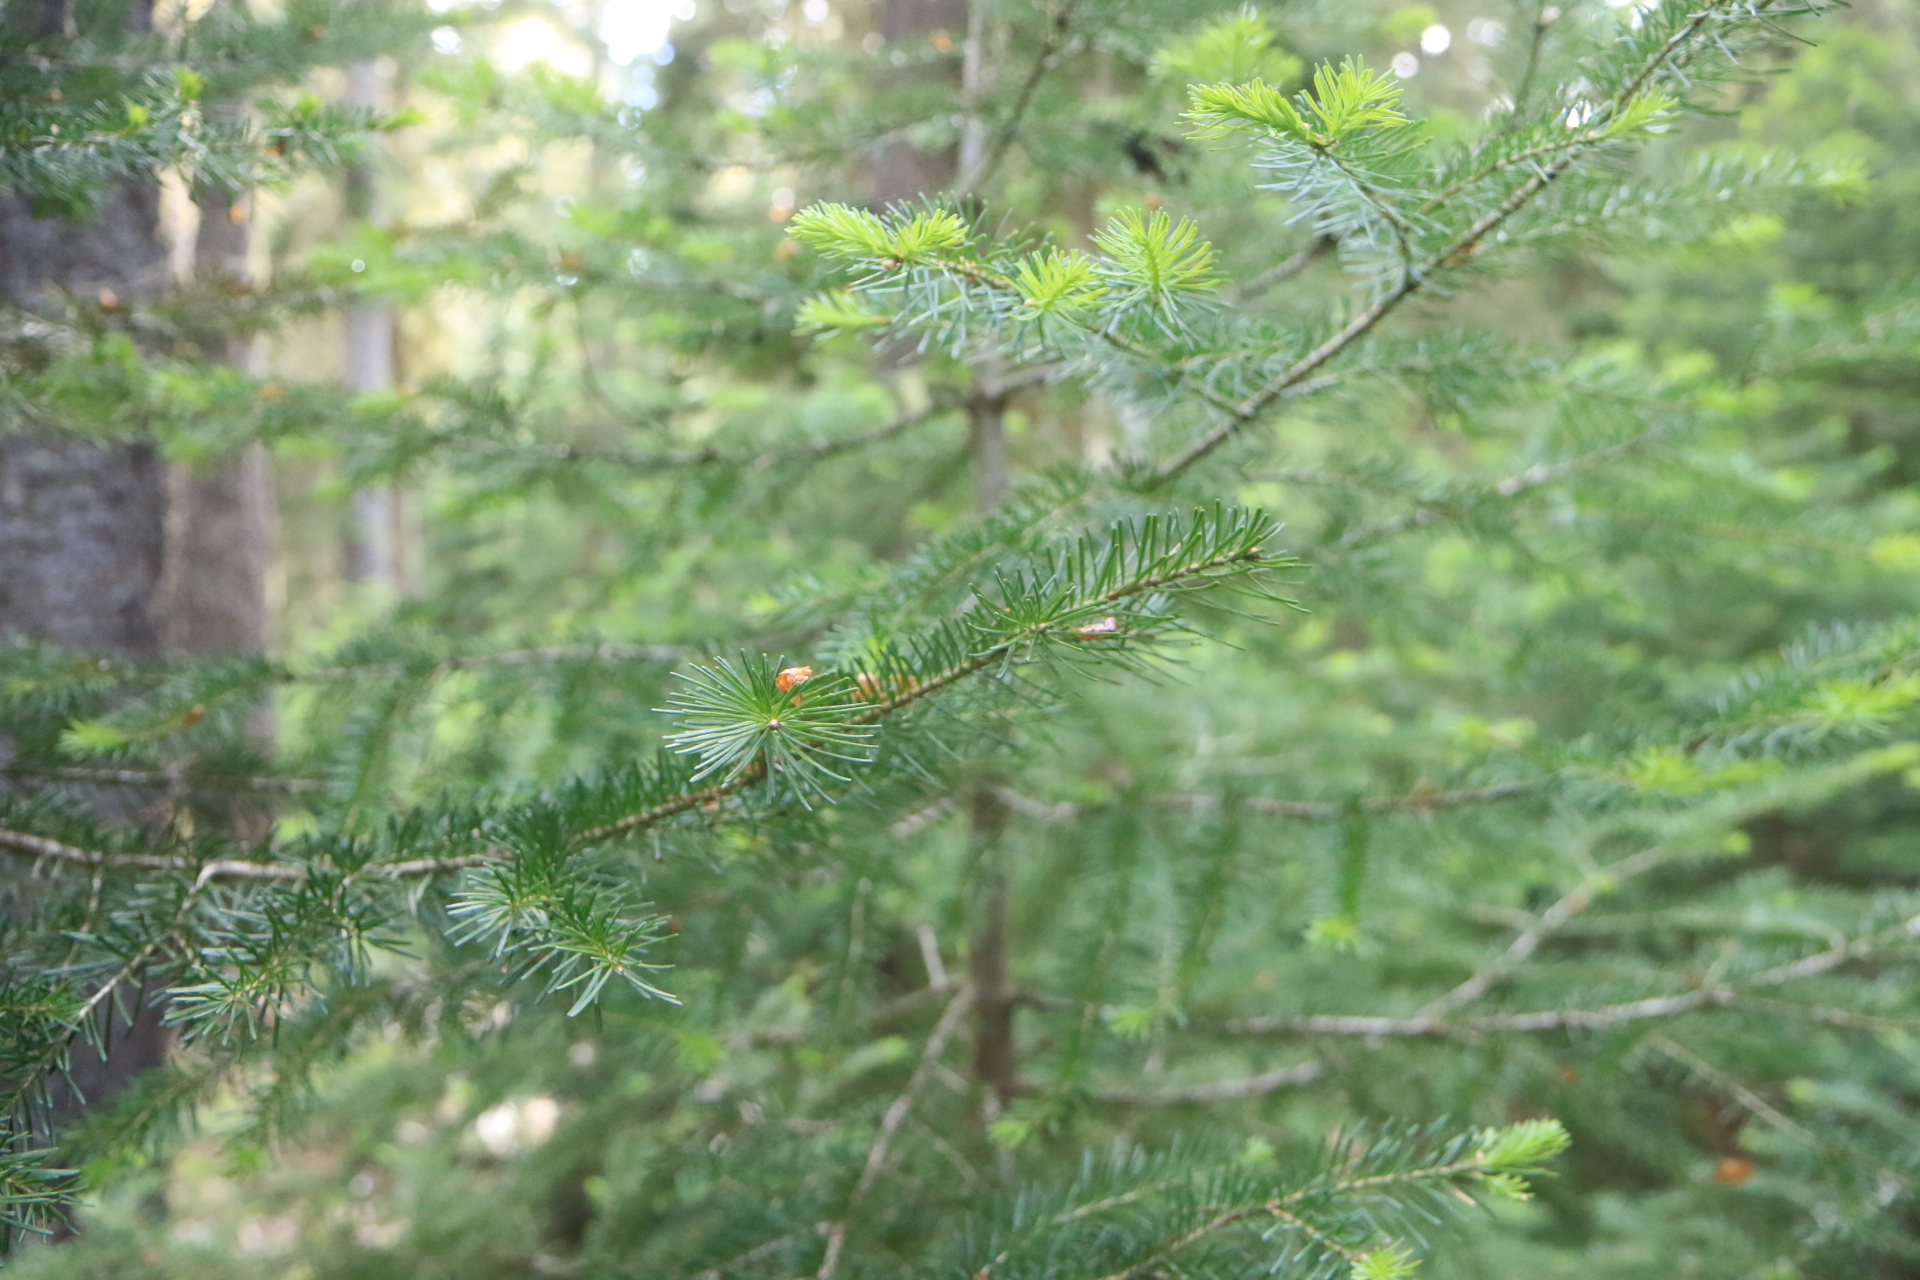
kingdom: Plantae
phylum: Tracheophyta
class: Pinopsida
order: Pinales
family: Pinaceae
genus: Abies
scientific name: Abies lasiocarpa
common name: Subalpine fir
